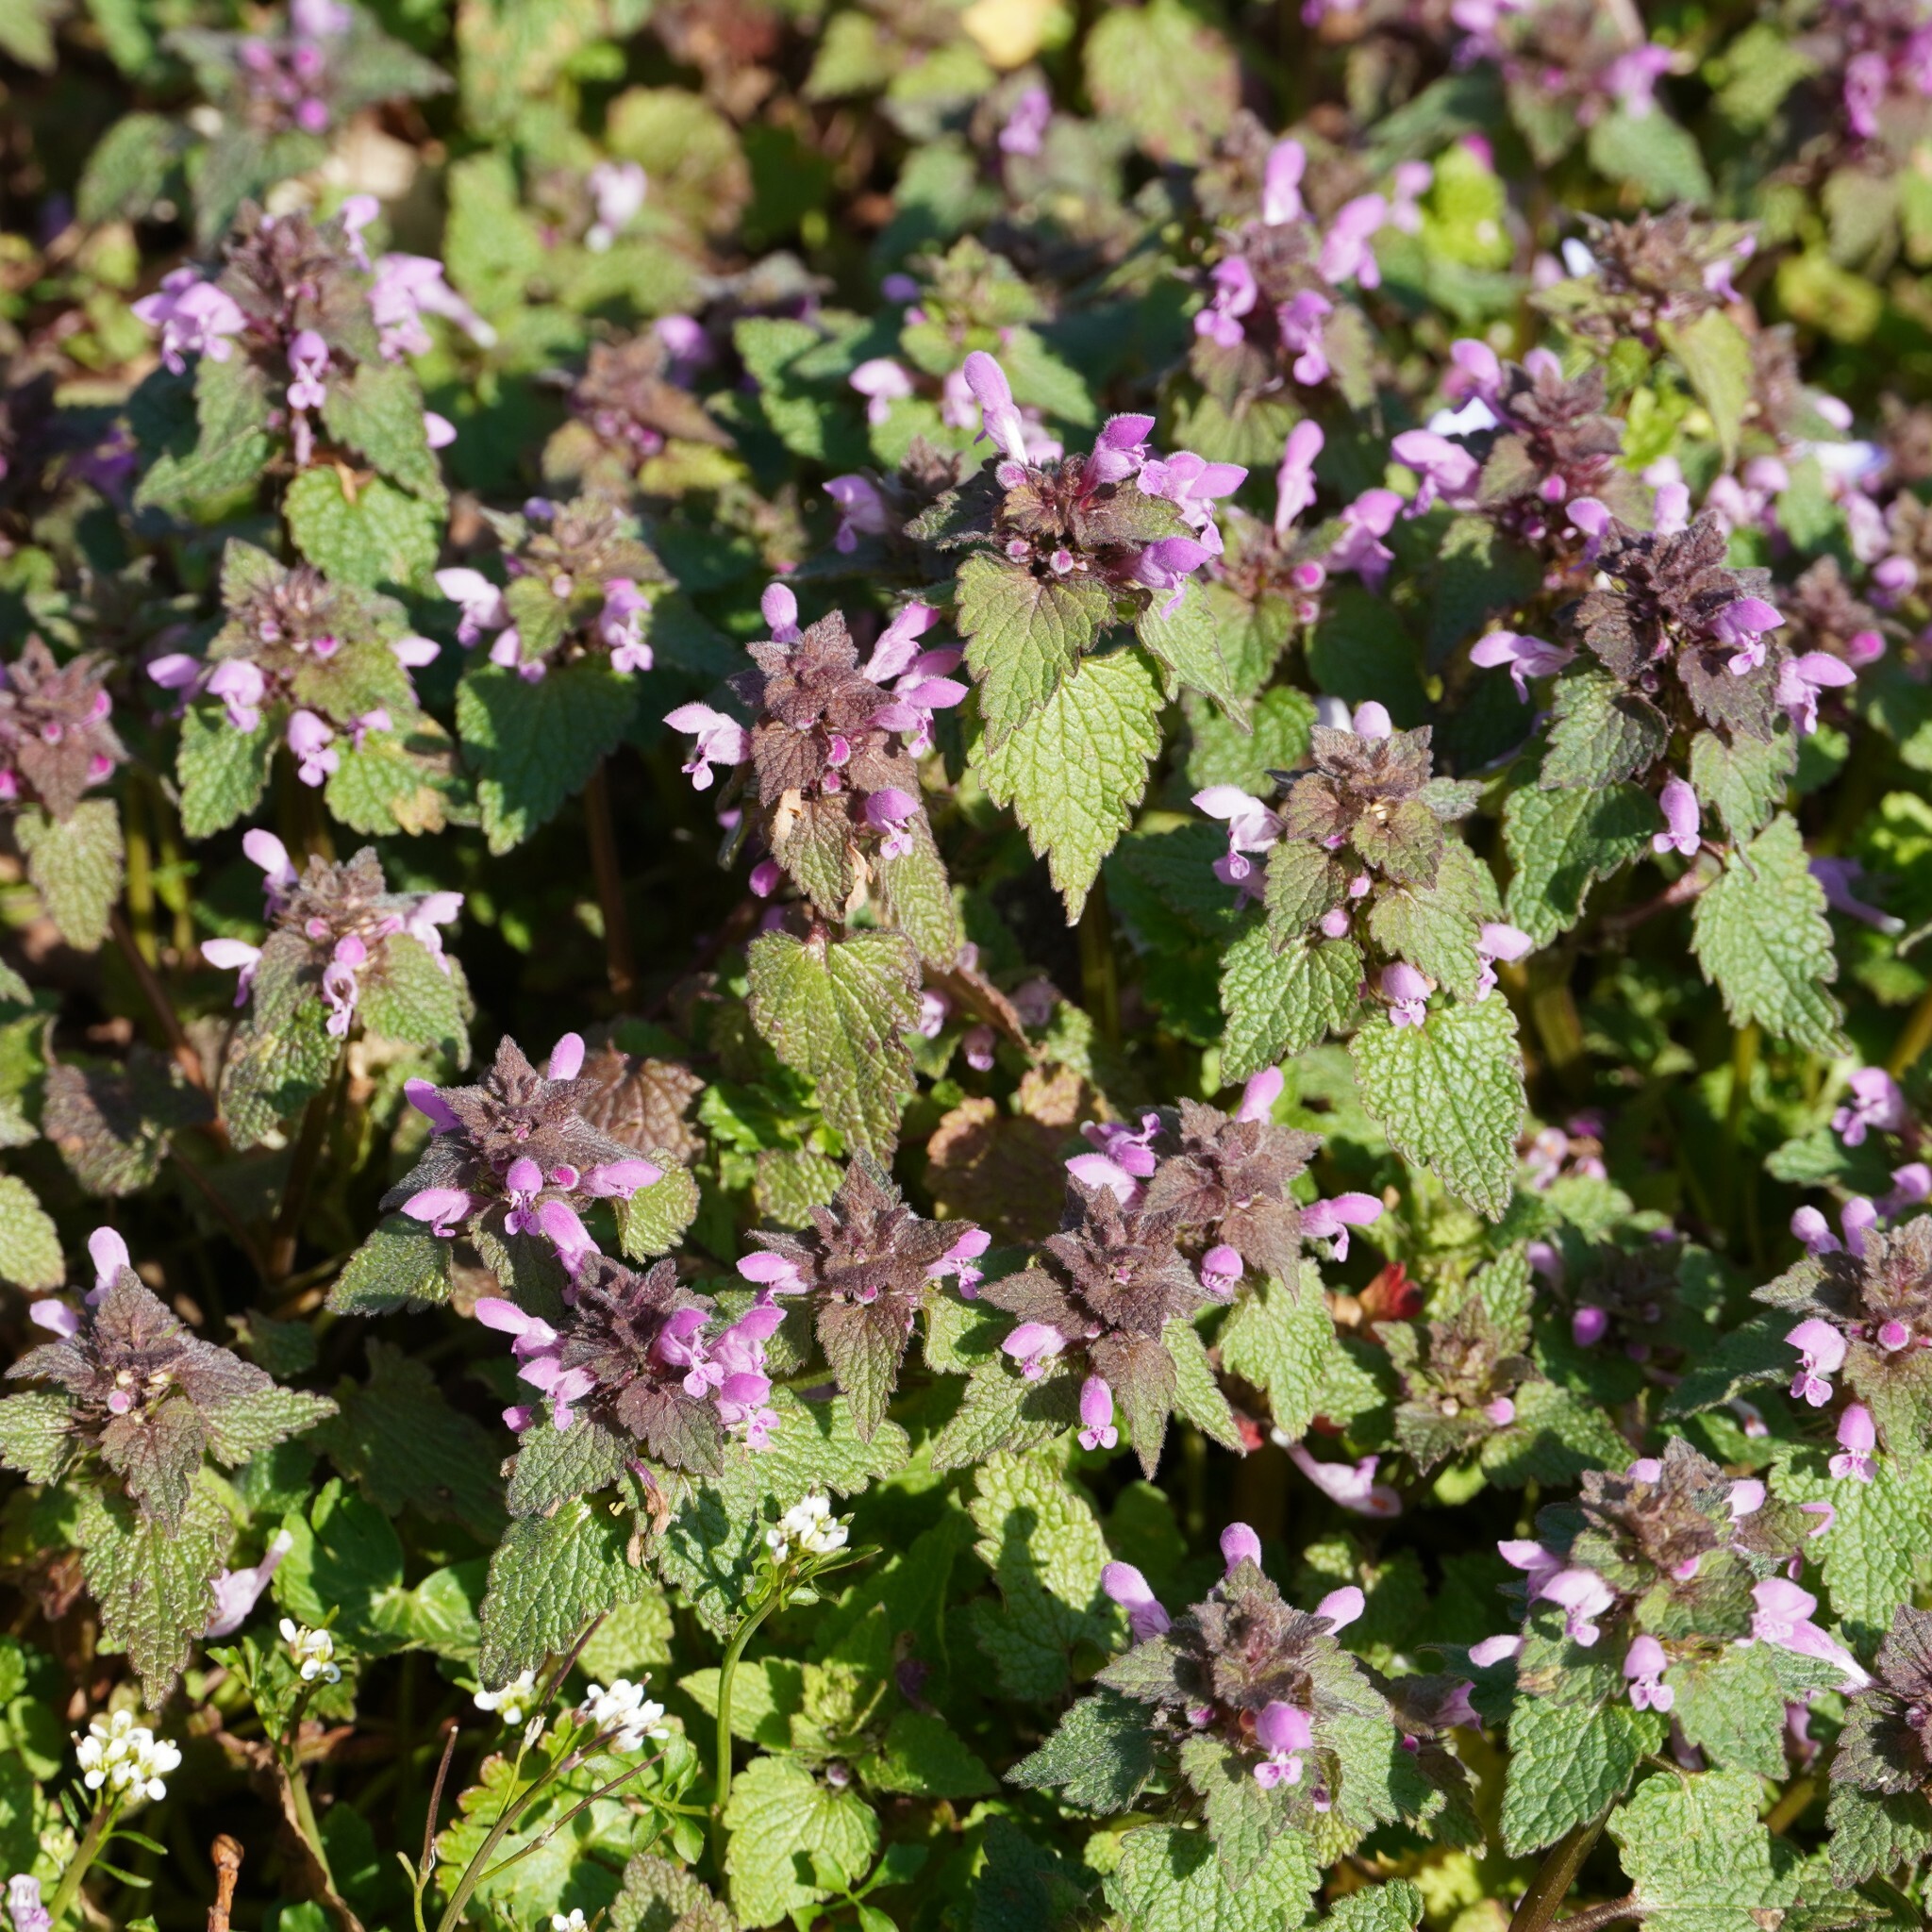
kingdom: Plantae
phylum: Tracheophyta
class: Magnoliopsida
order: Lamiales
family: Lamiaceae
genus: Lamium
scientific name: Lamium purpureum
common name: Red dead-nettle
